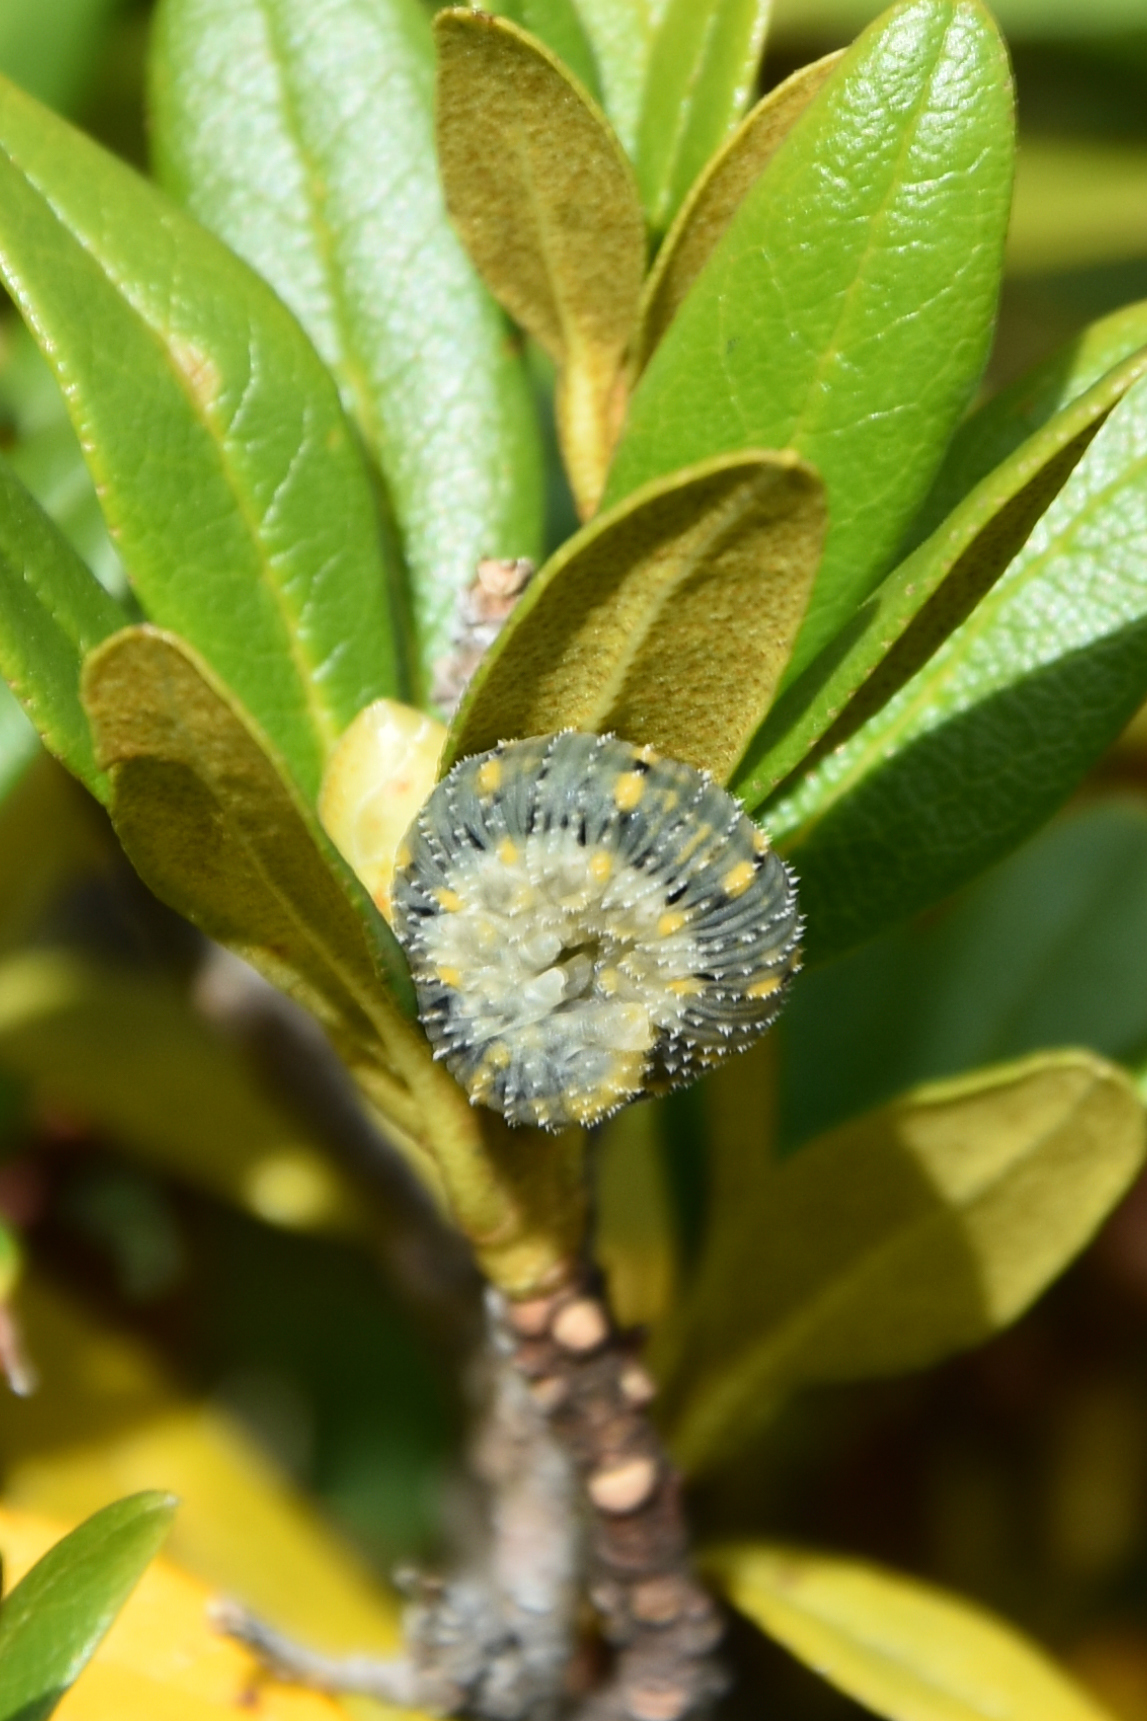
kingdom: Animalia
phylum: Arthropoda
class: Insecta
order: Hymenoptera
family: Cimbicidae
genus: Abia
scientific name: Abia fulgens
